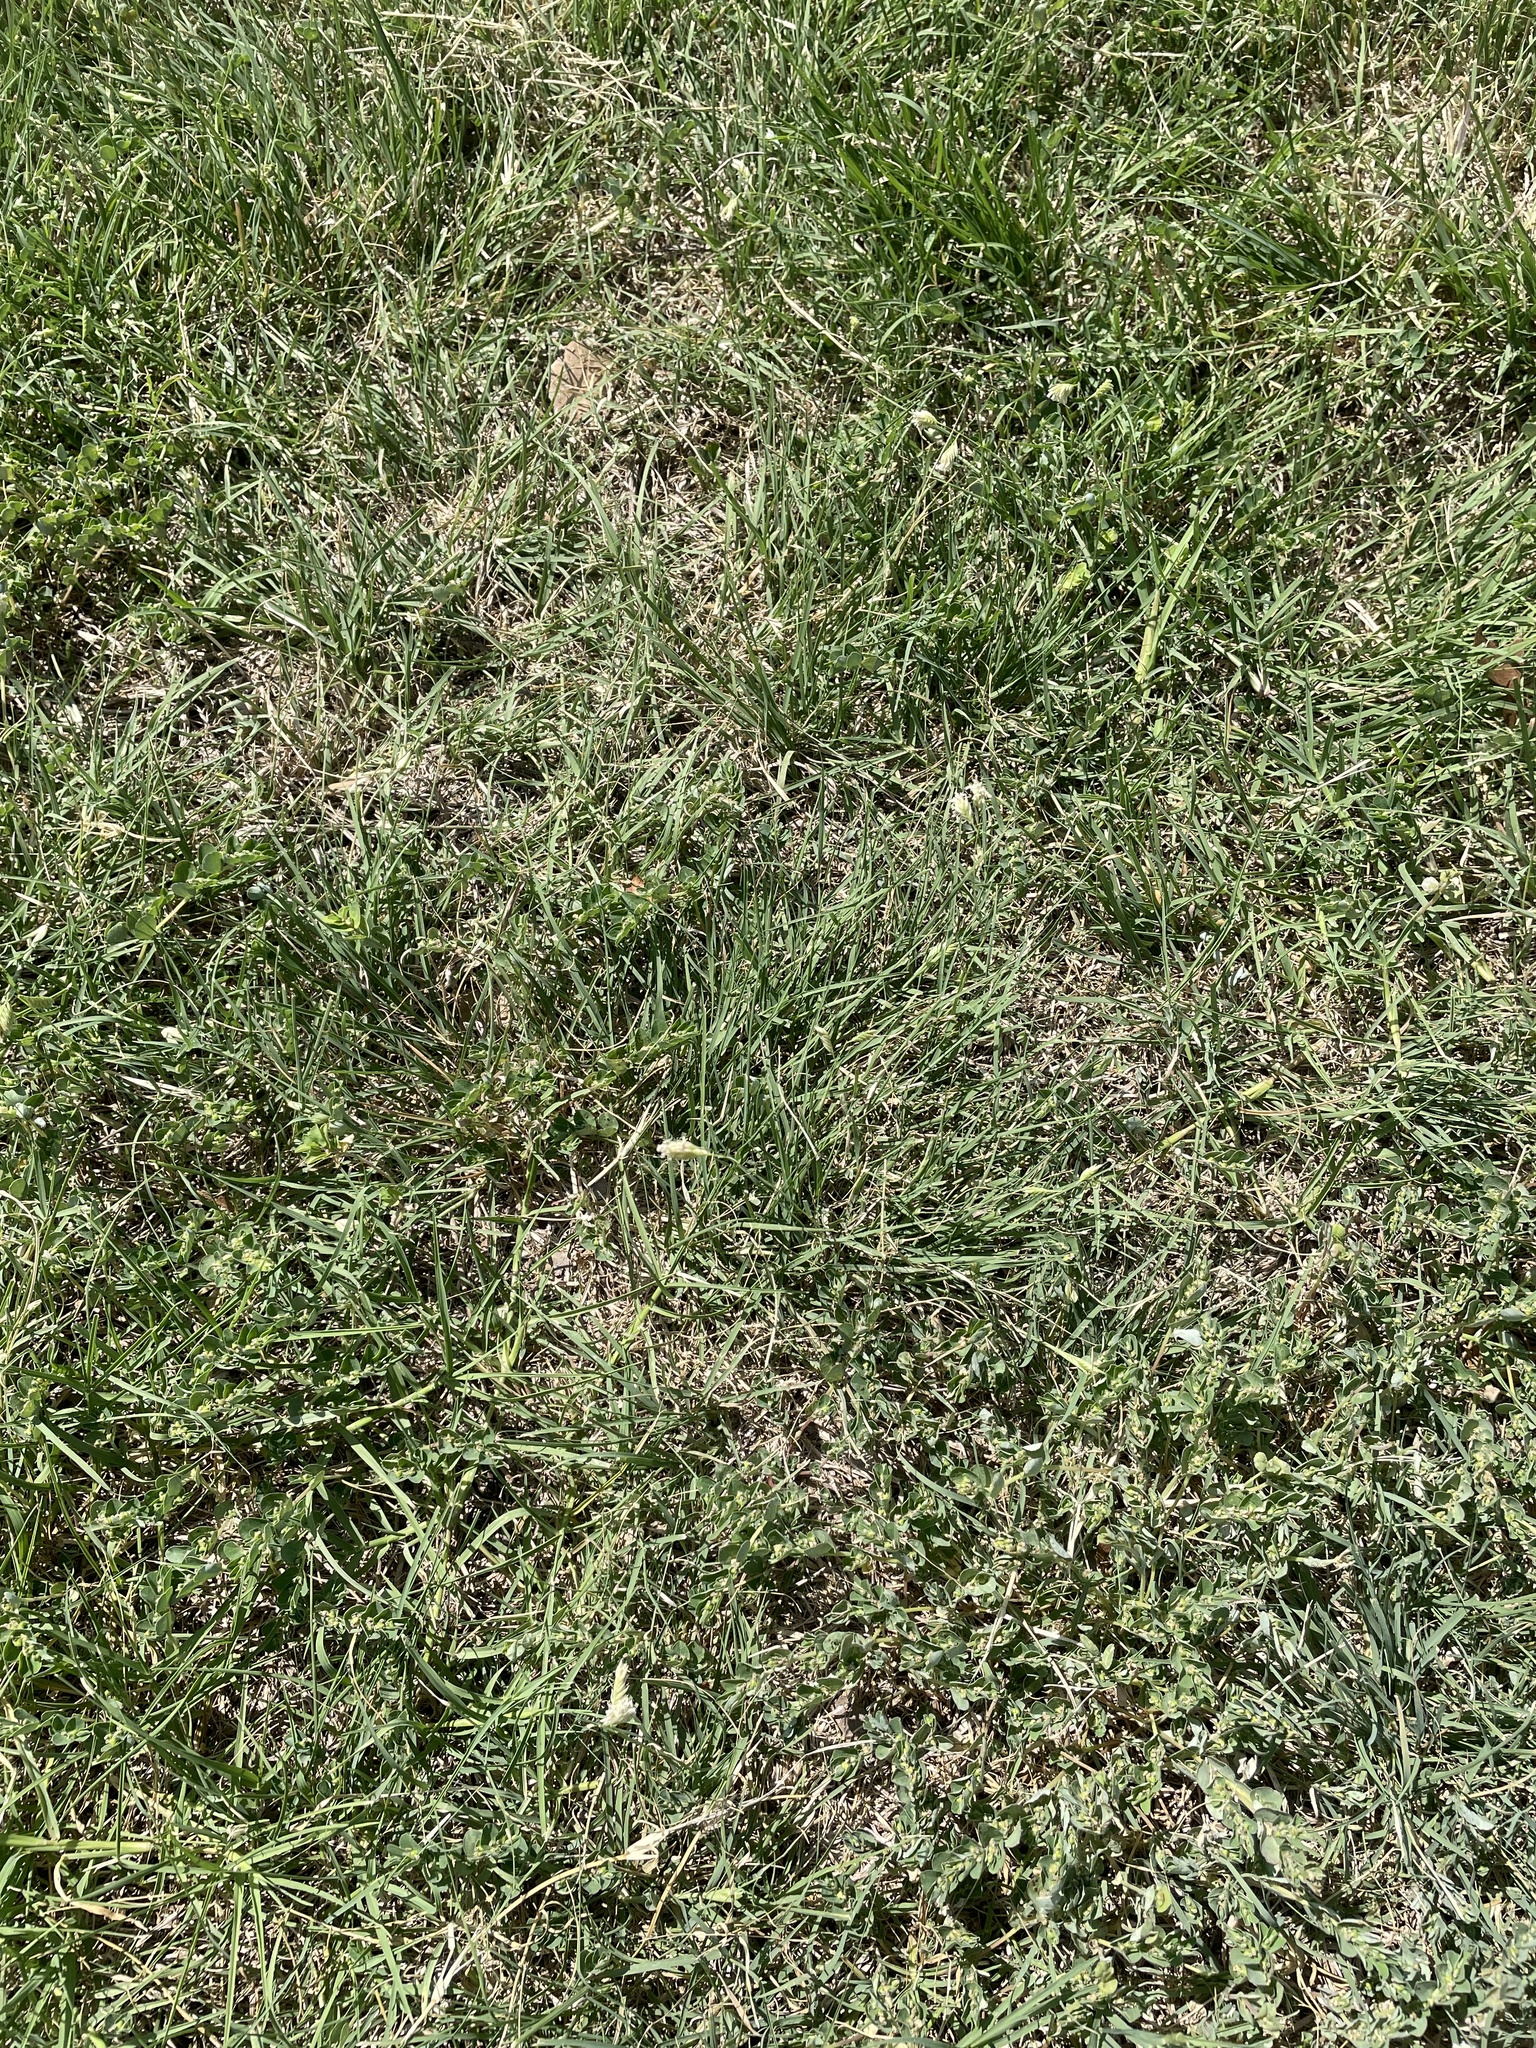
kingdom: Plantae
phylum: Tracheophyta
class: Liliopsida
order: Poales
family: Poaceae
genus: Bouteloua
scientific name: Bouteloua dactyloides
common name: Buffalo grass
